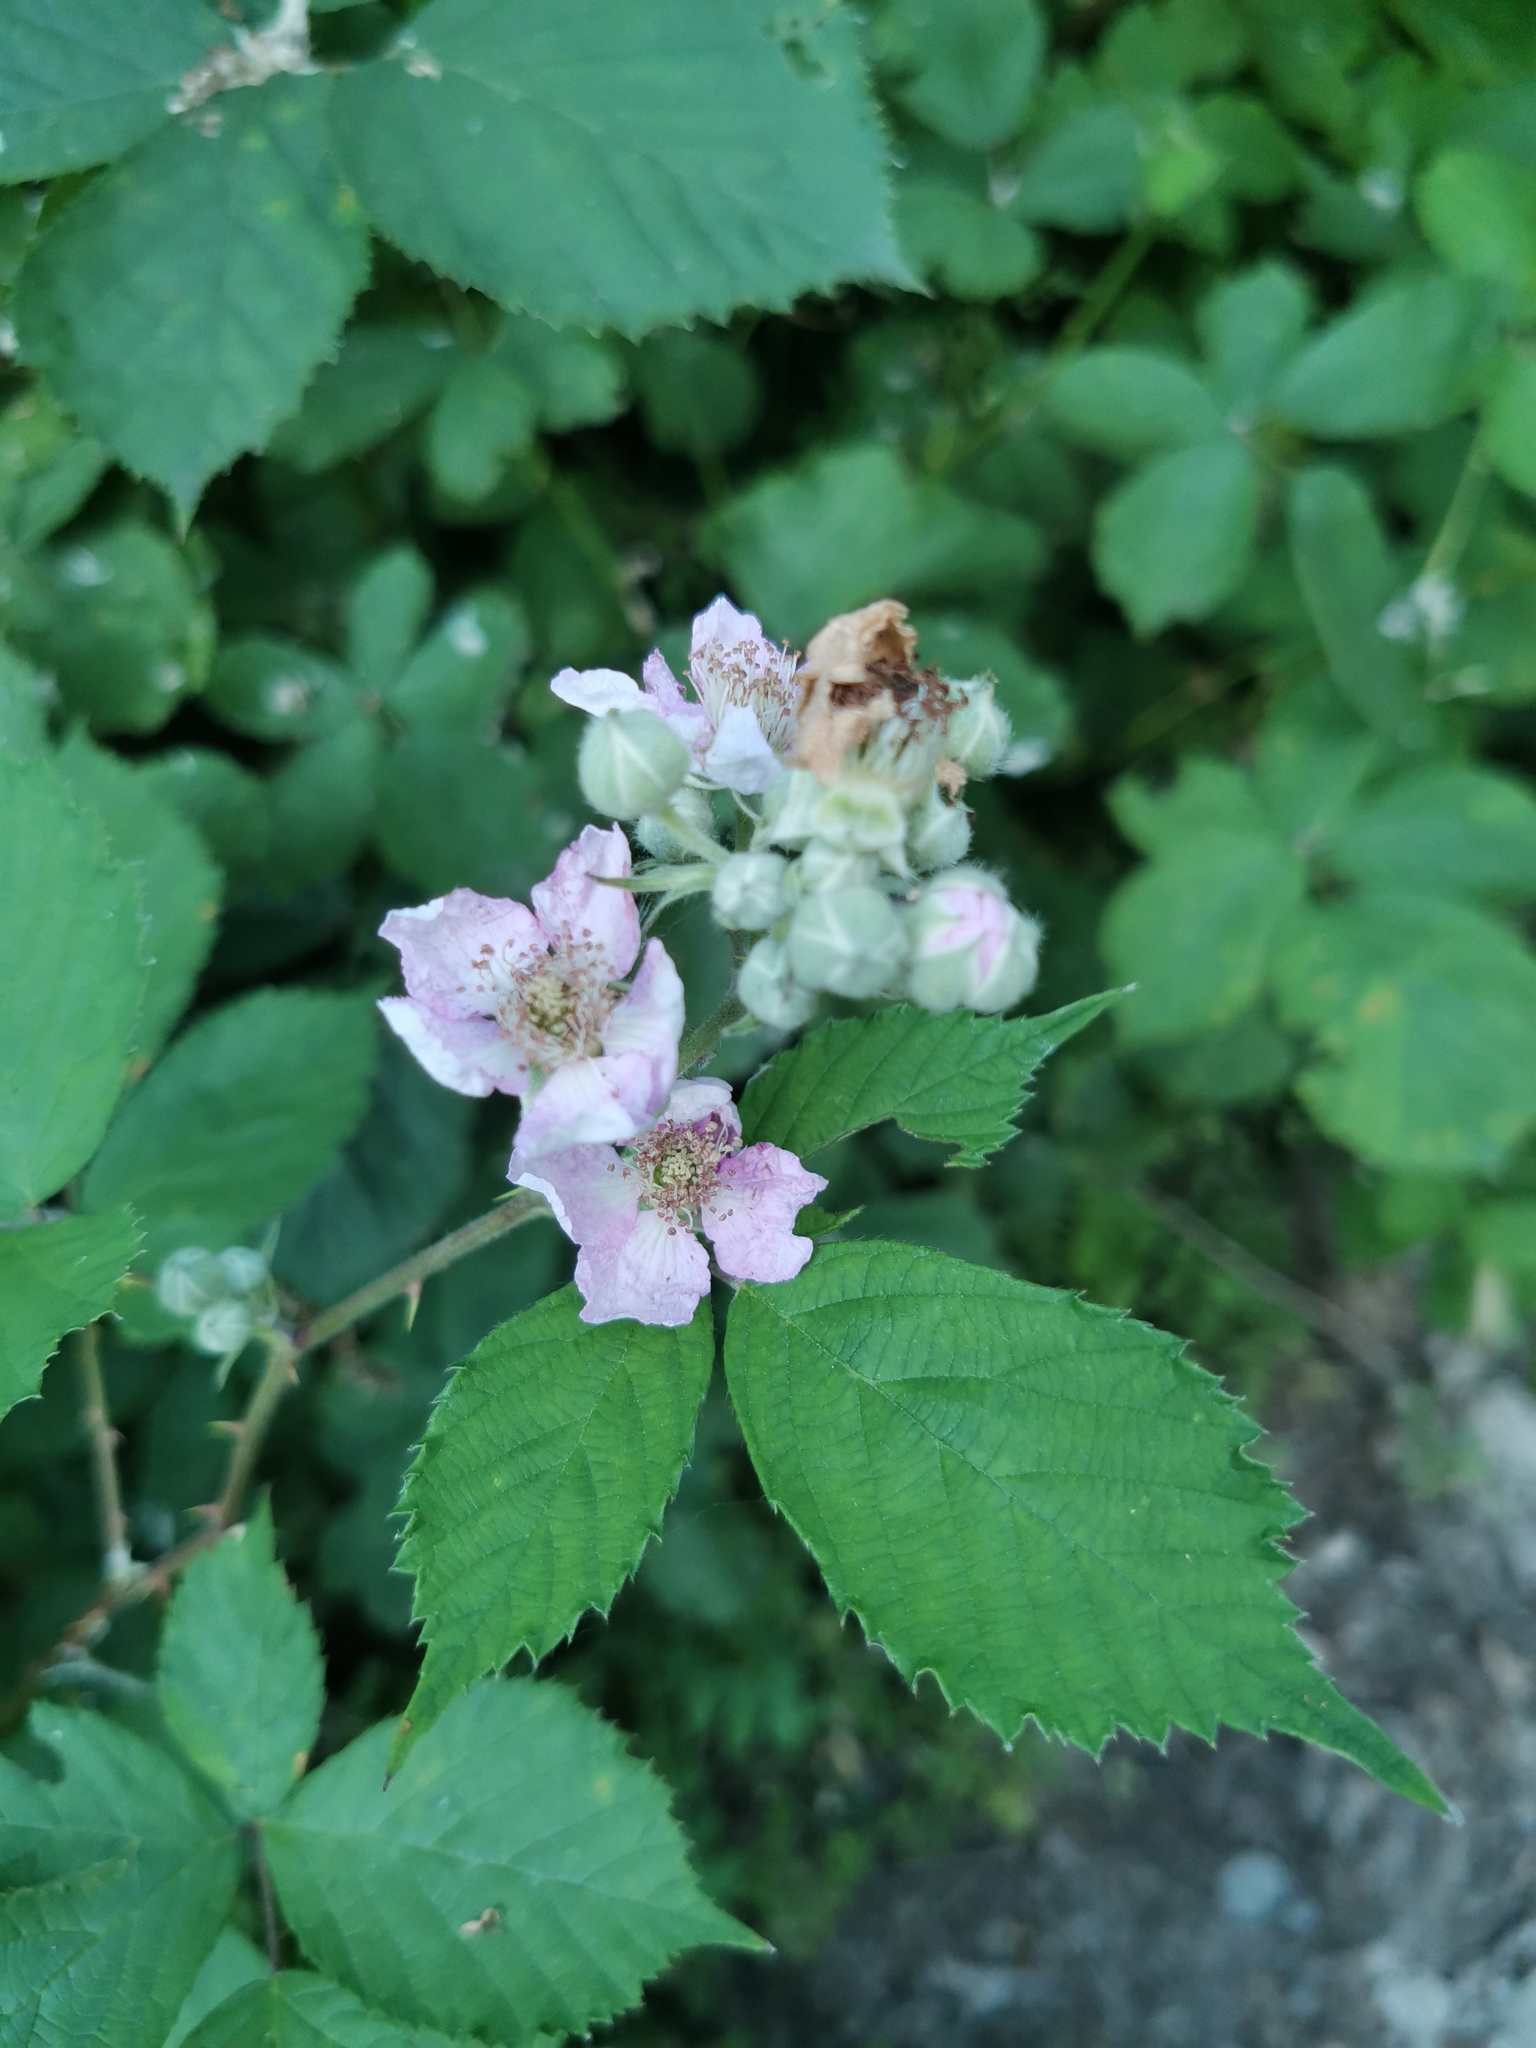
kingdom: Plantae
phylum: Tracheophyta
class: Magnoliopsida
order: Rosales
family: Rosaceae
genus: Rubus
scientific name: Rubus sanctus
